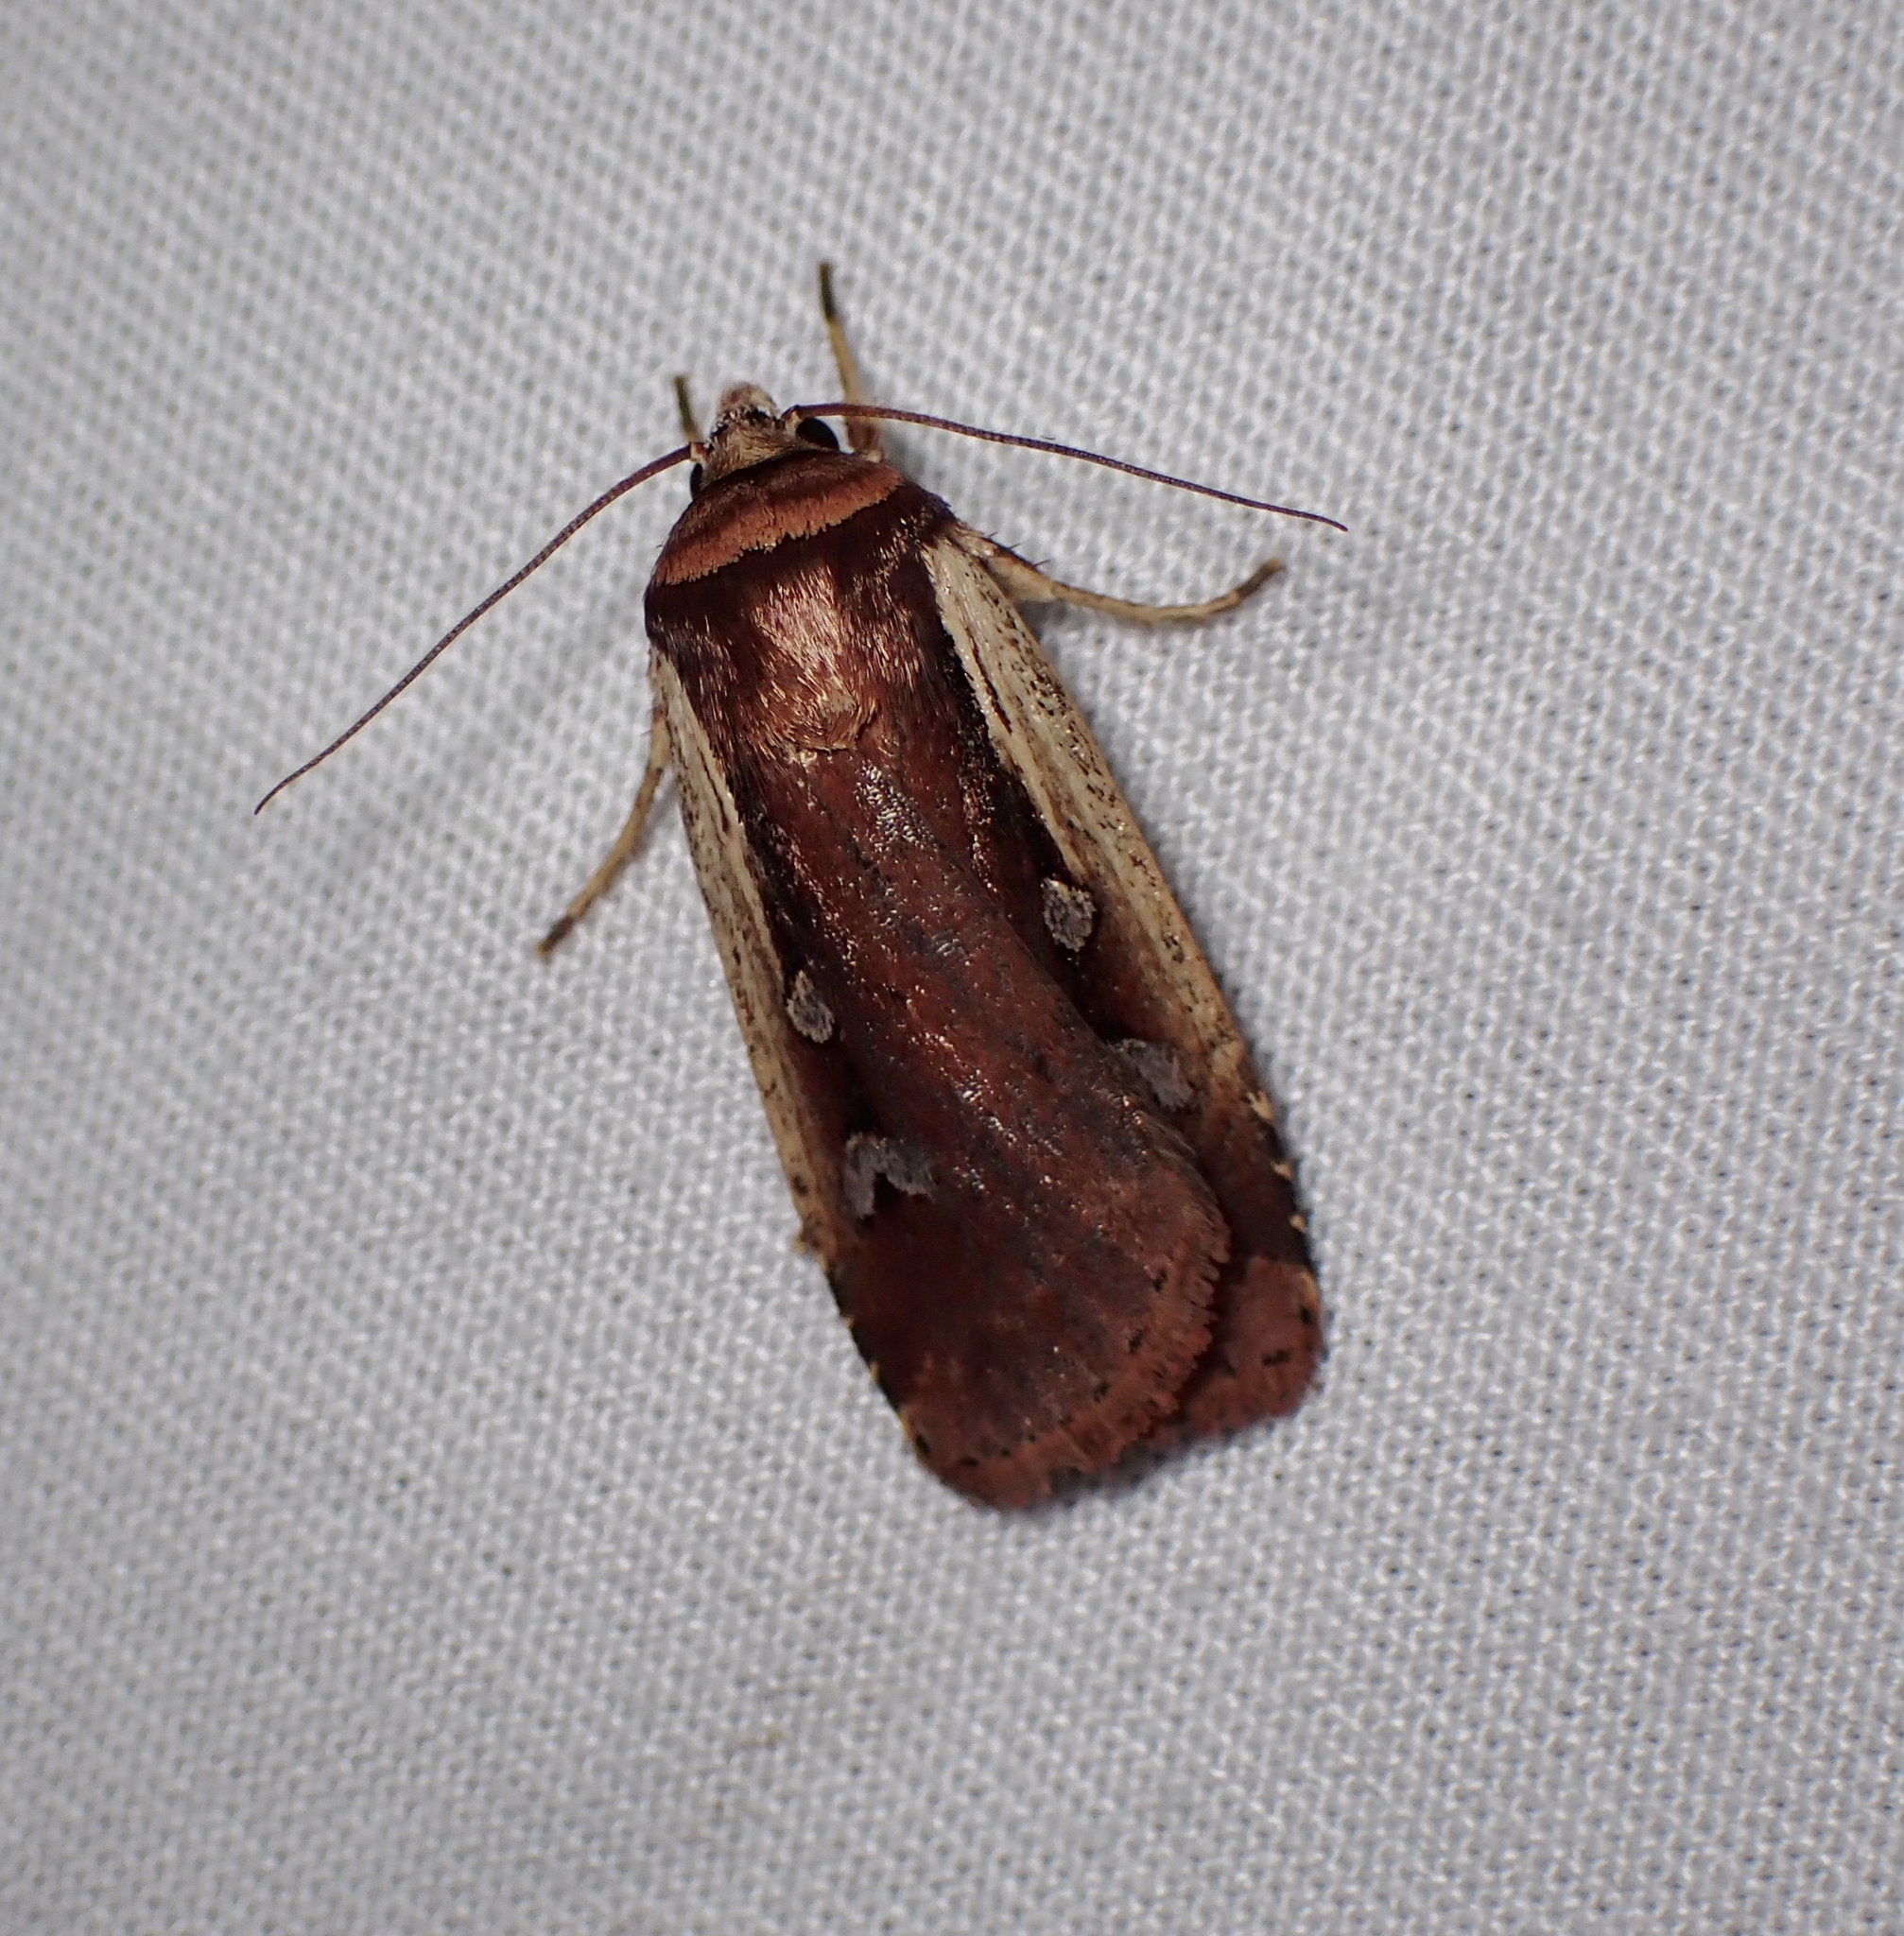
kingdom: Animalia
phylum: Arthropoda
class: Insecta
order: Lepidoptera
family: Noctuidae
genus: Ochropleura
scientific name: Ochropleura implecta
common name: Flame-shouldered dart
